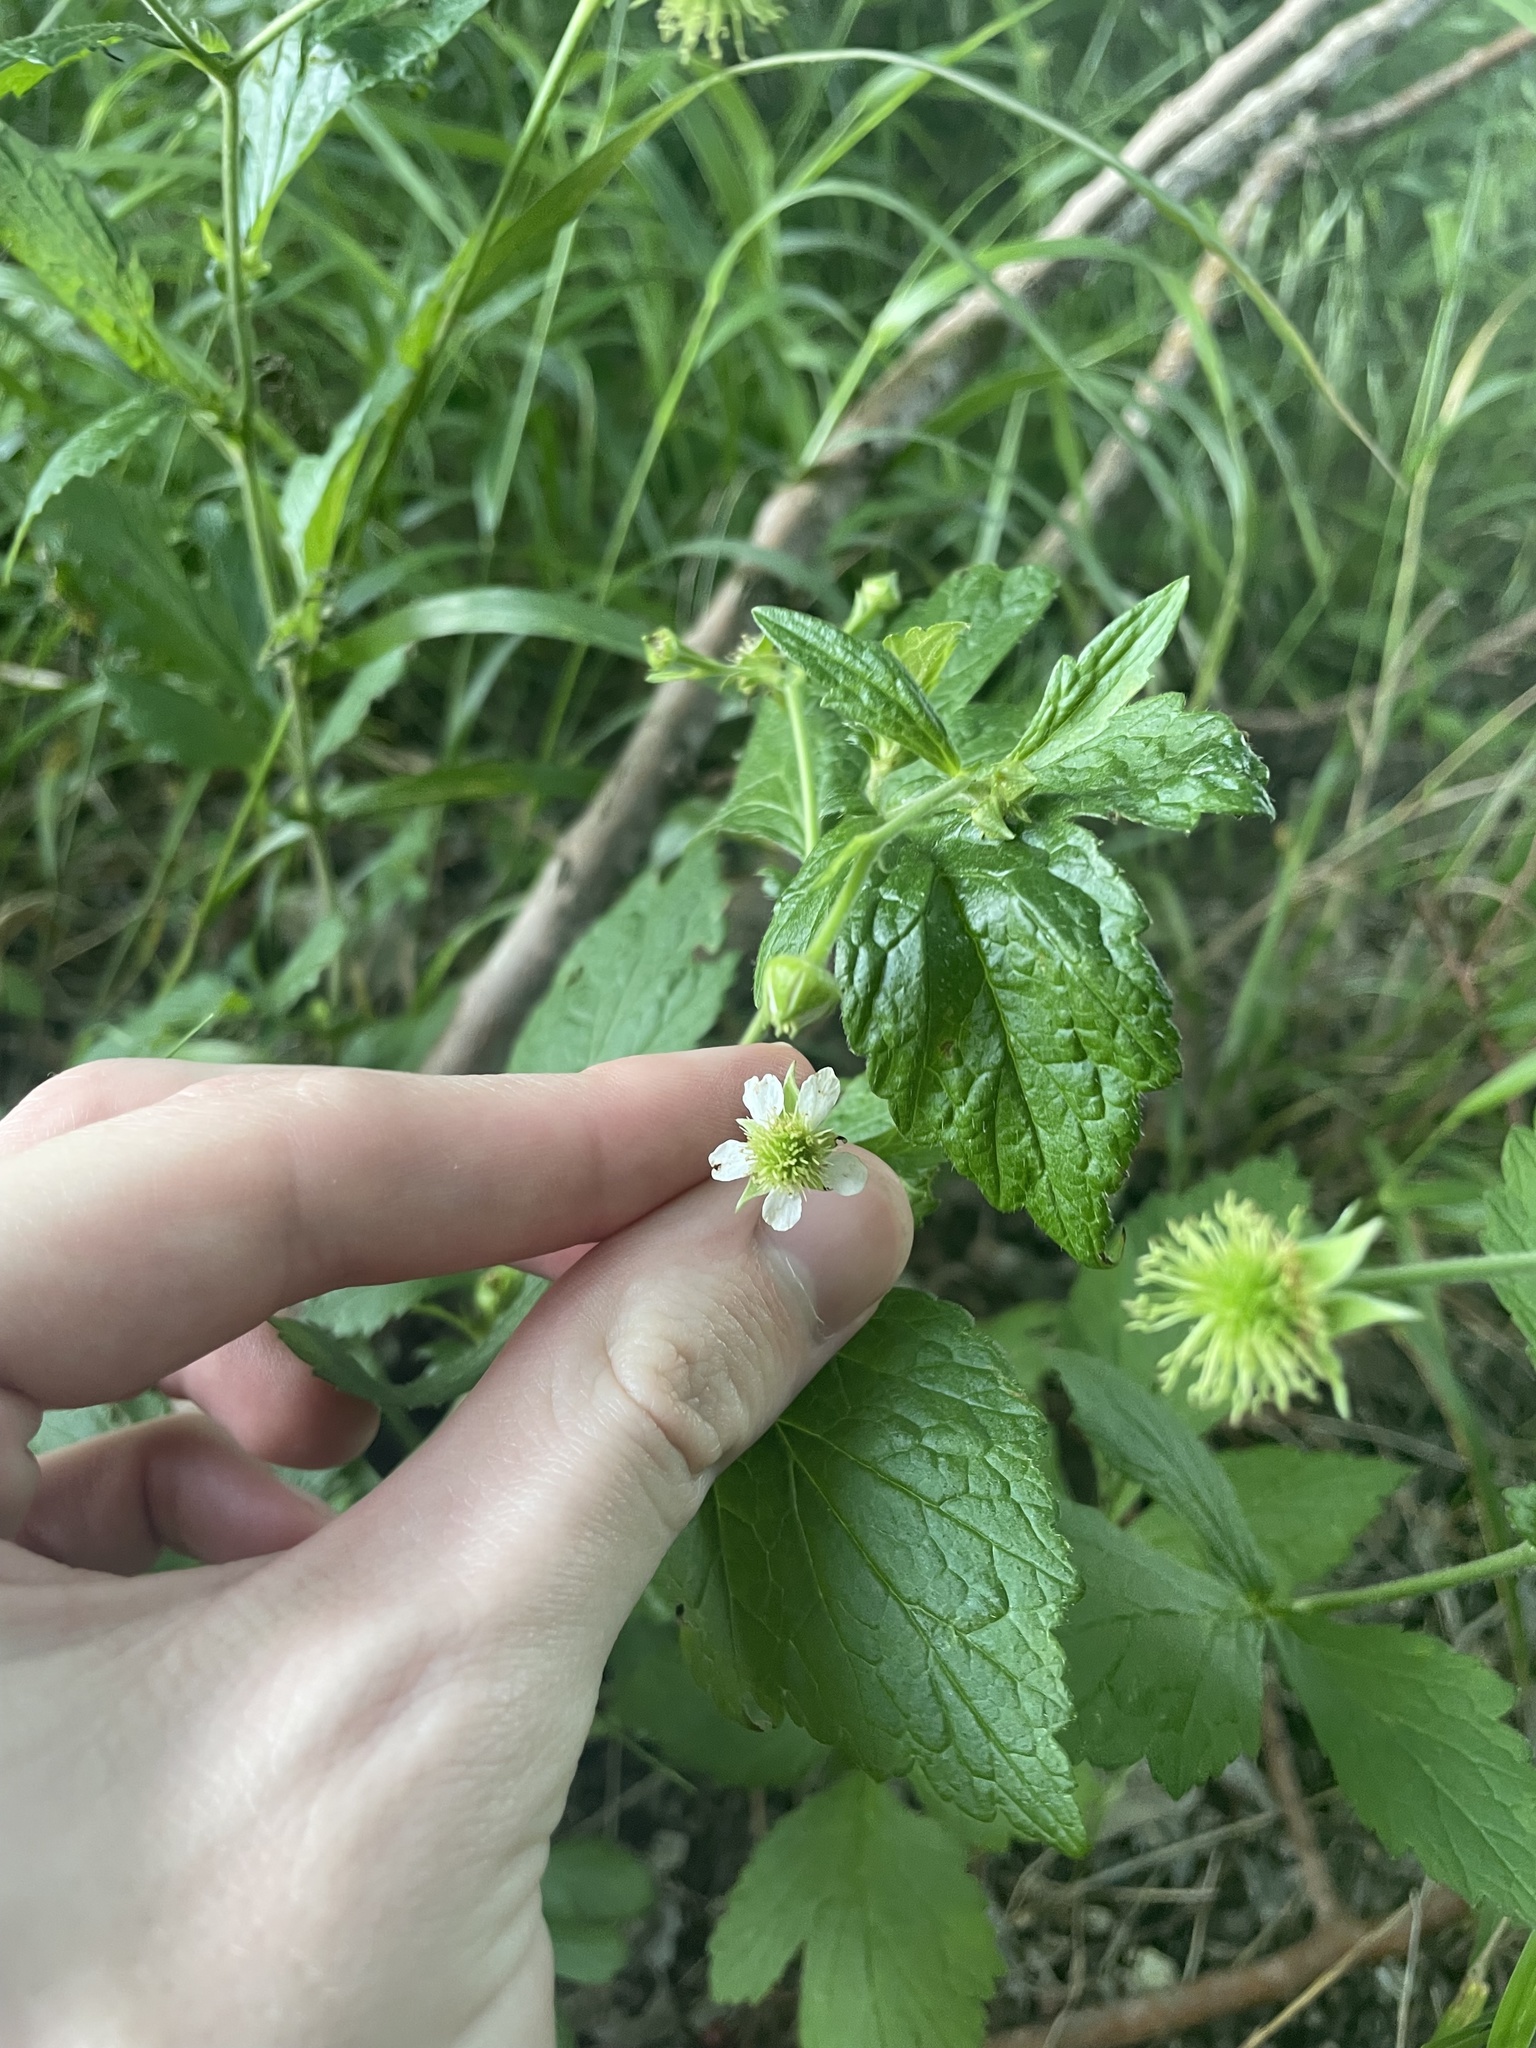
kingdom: Plantae
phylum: Tracheophyta
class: Magnoliopsida
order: Rosales
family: Rosaceae
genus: Geum
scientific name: Geum canadense
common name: White avens
